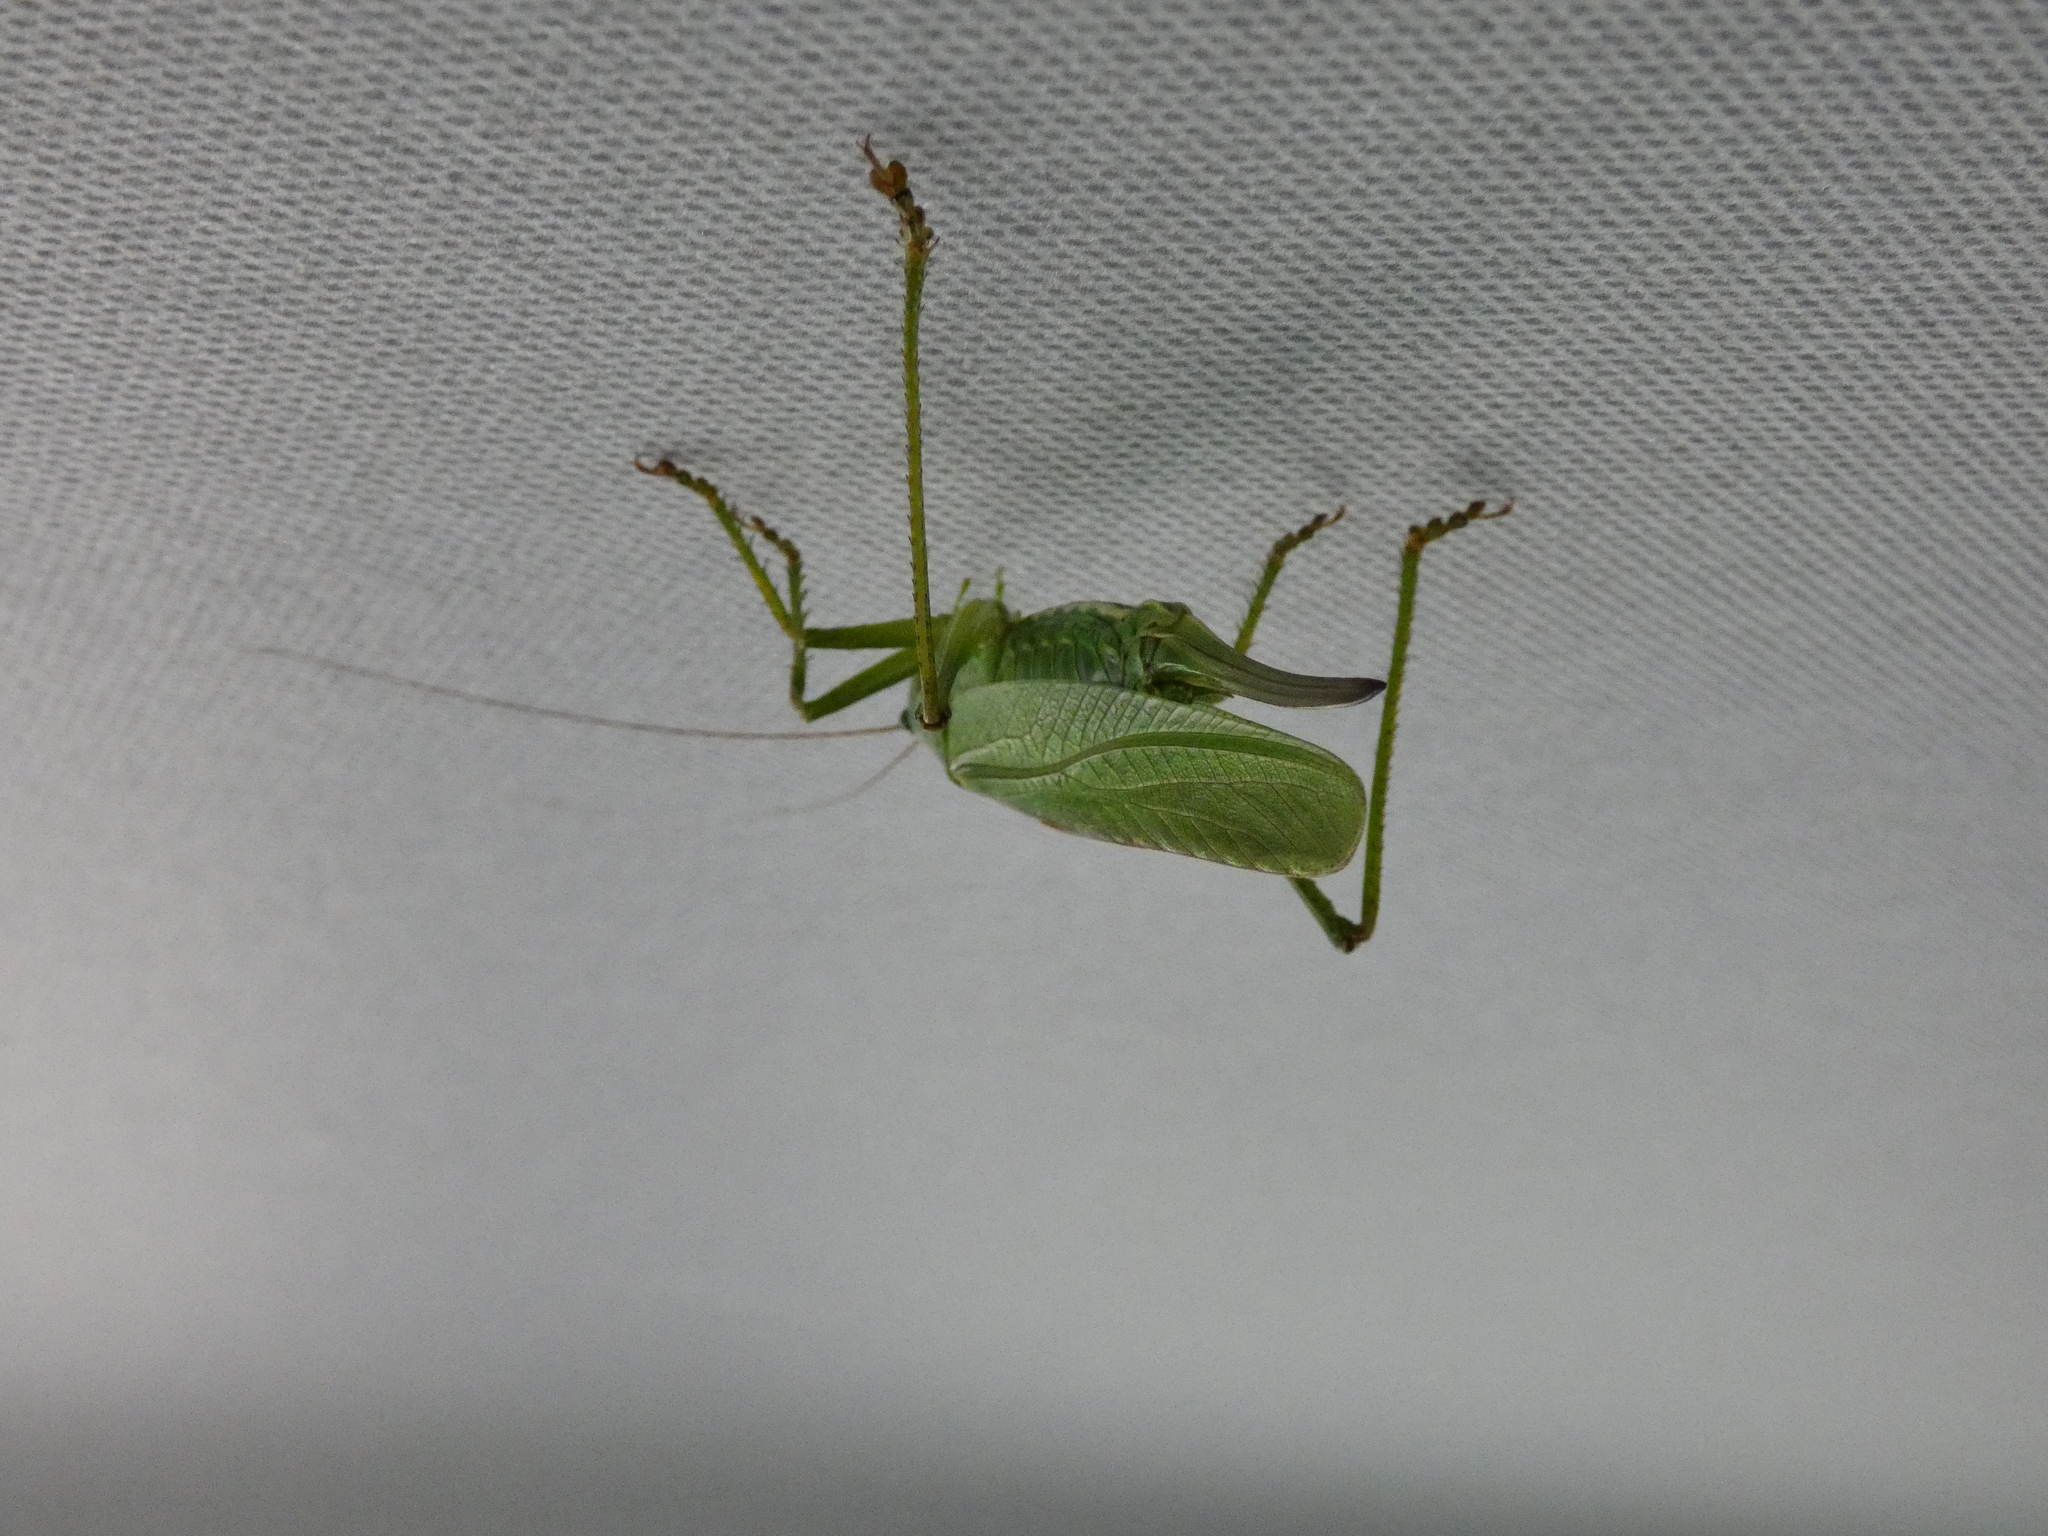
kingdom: Animalia
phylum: Arthropoda
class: Insecta
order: Orthoptera
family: Tettigoniidae
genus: Tettigonia
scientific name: Tettigonia viridissima
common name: Great green bush-cricket
